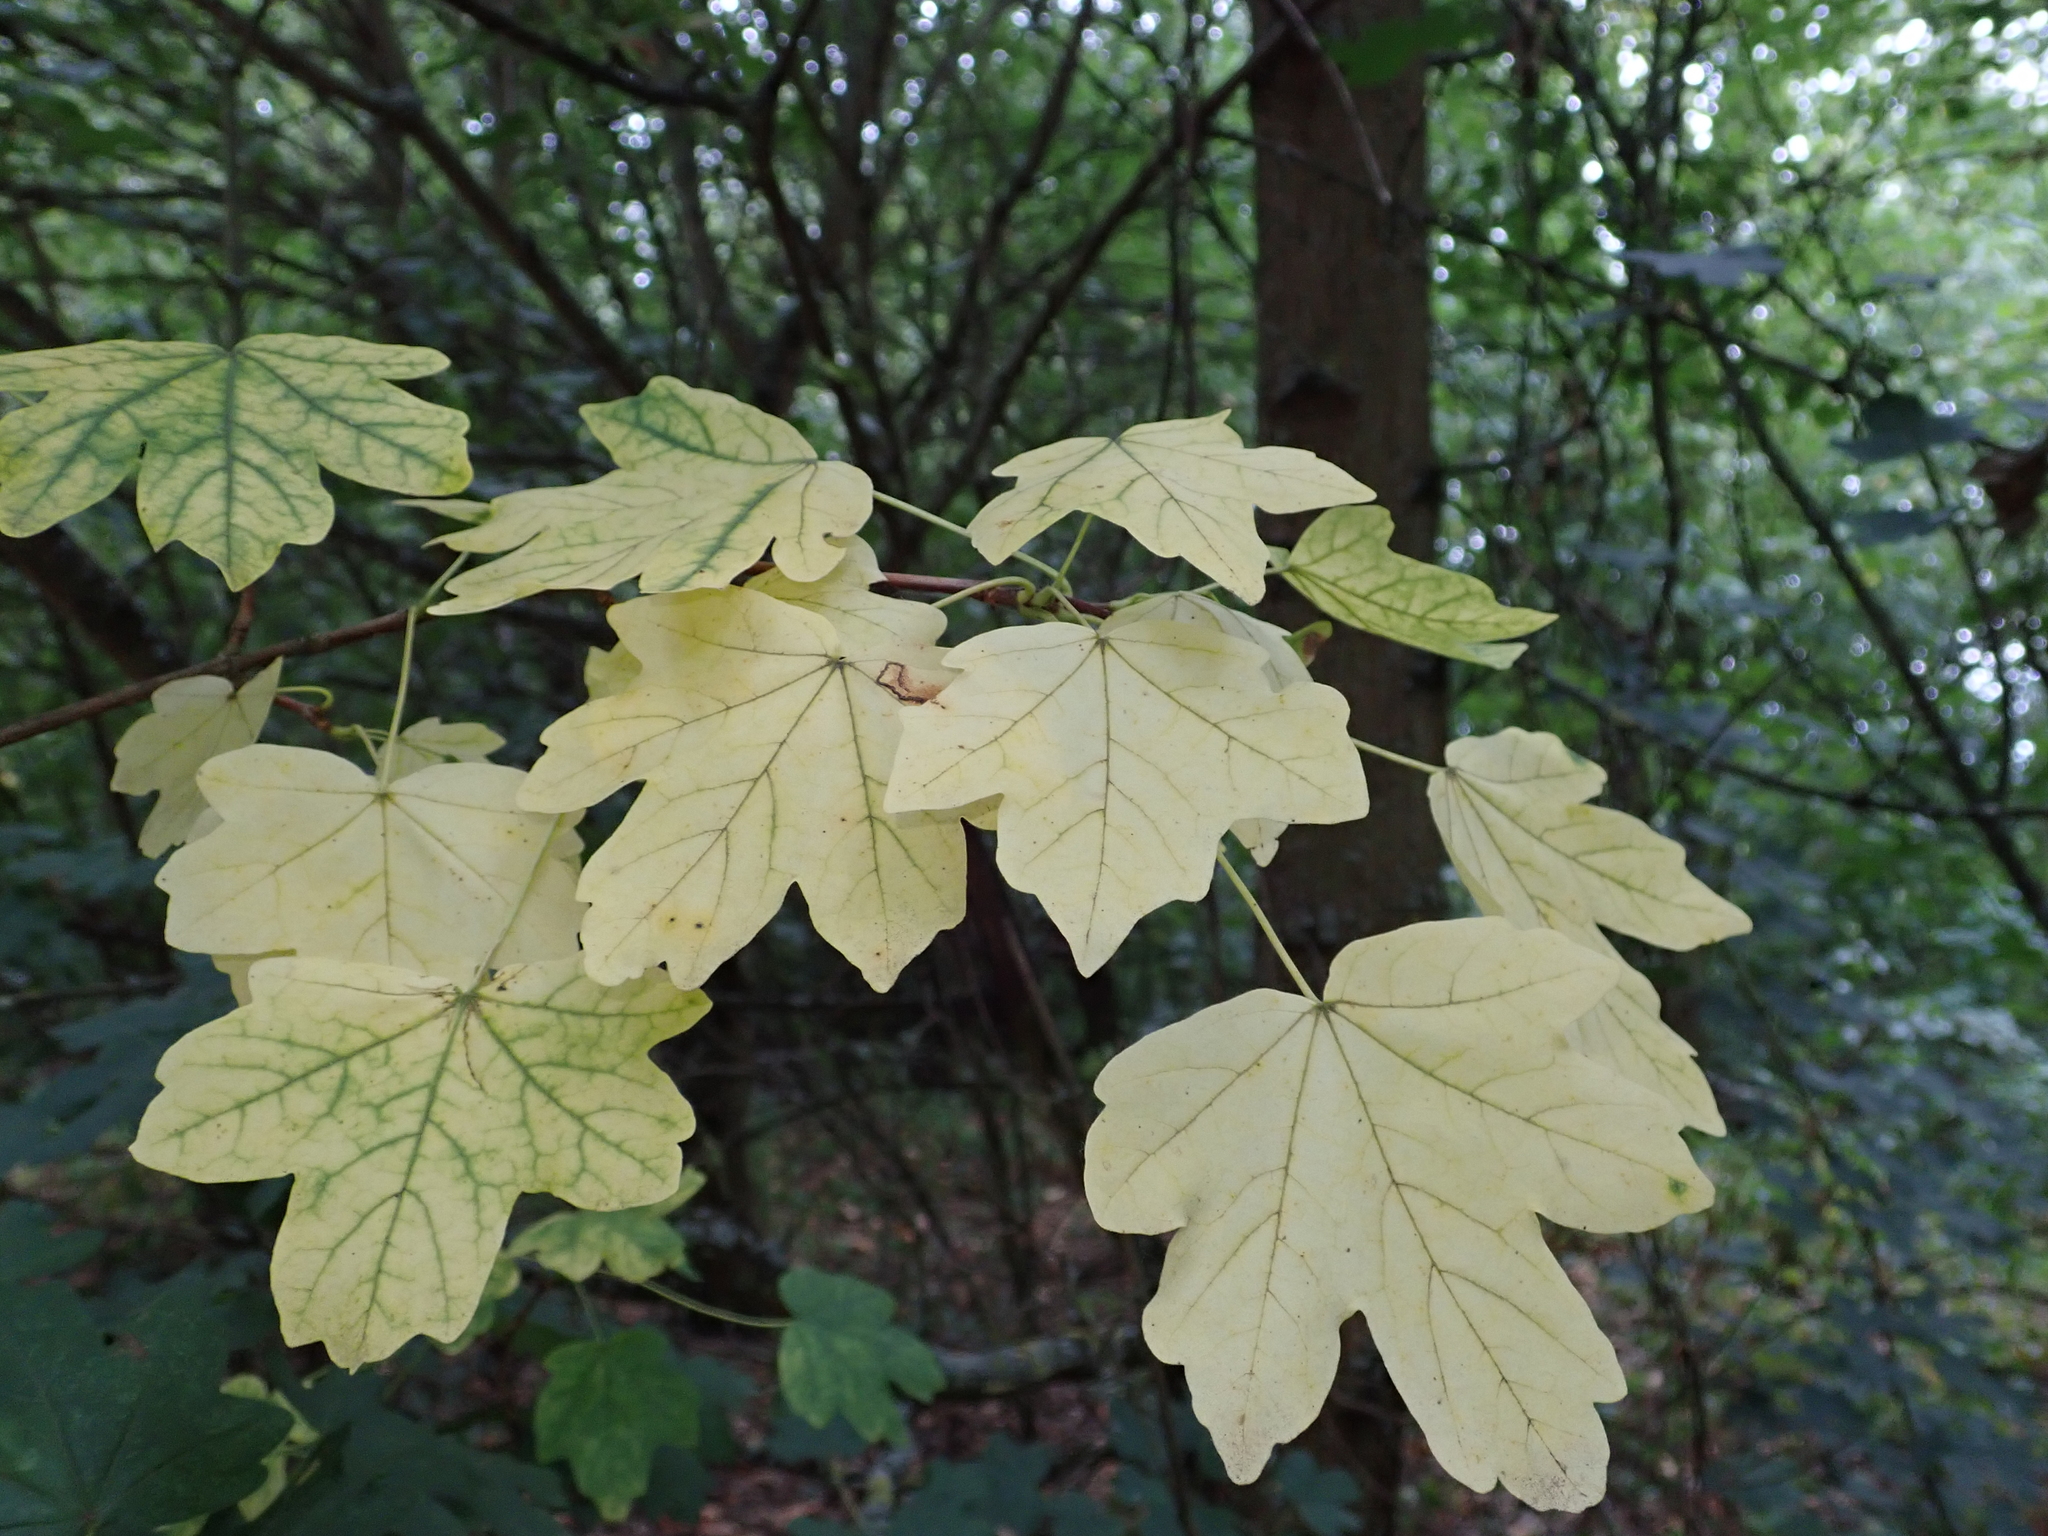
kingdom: Plantae
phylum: Tracheophyta
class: Magnoliopsida
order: Sapindales
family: Sapindaceae
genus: Acer
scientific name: Acer campestre
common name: Field maple
